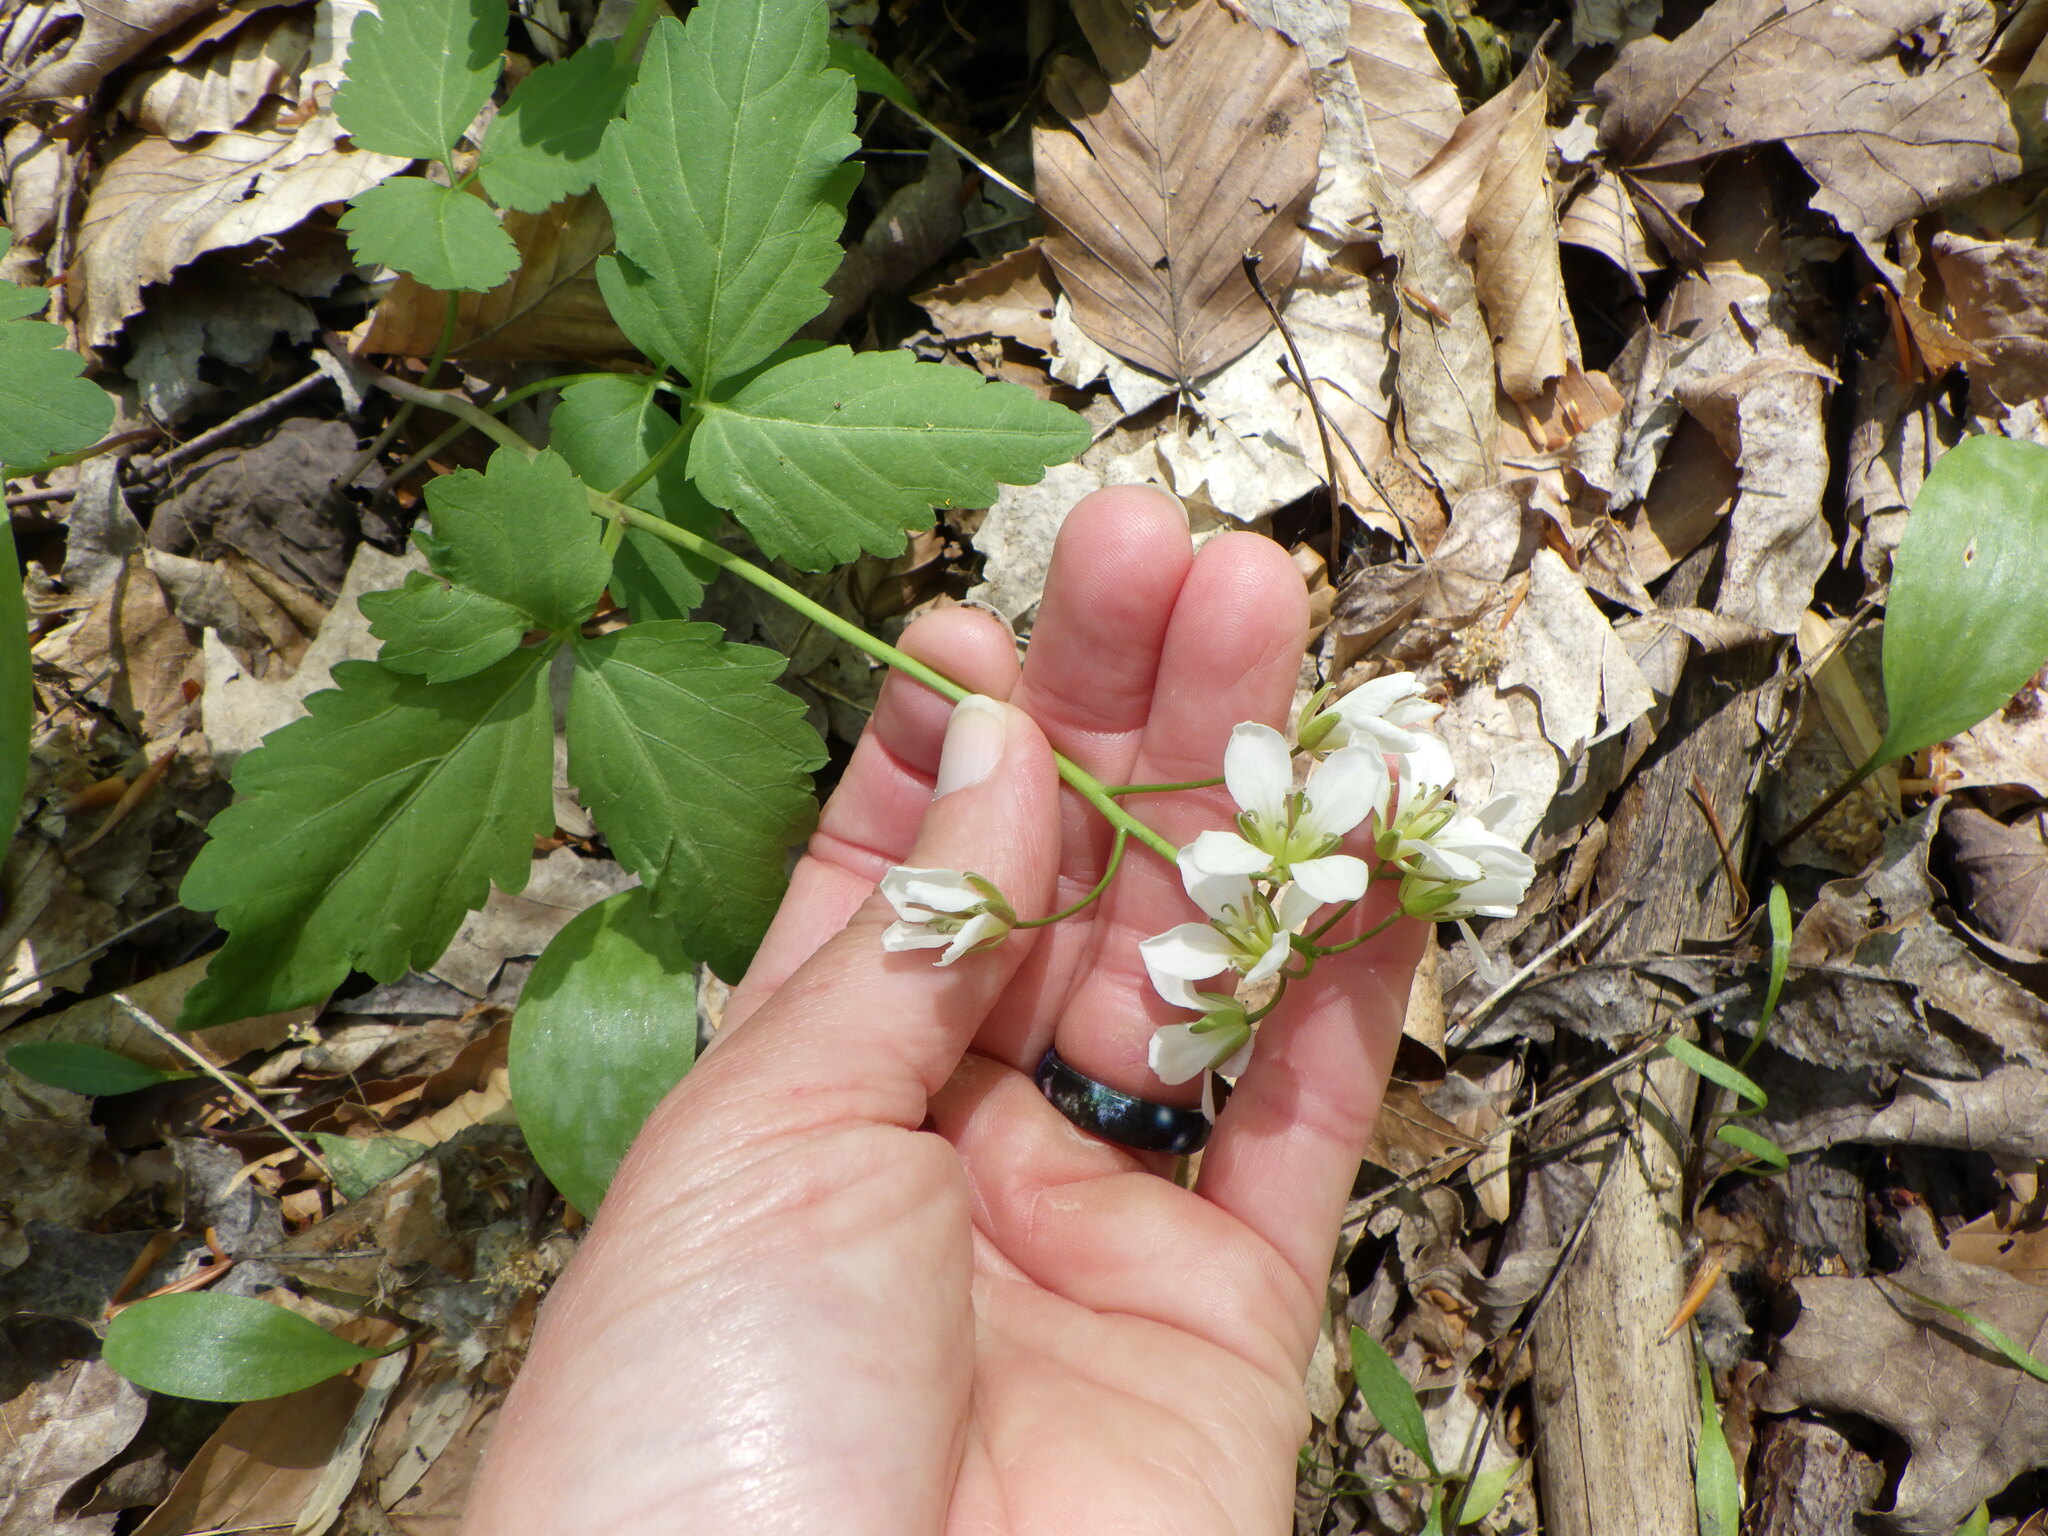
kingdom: Plantae
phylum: Tracheophyta
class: Magnoliopsida
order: Brassicales
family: Brassicaceae
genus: Cardamine
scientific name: Cardamine diphylla
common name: Broad-leaved toothwort
